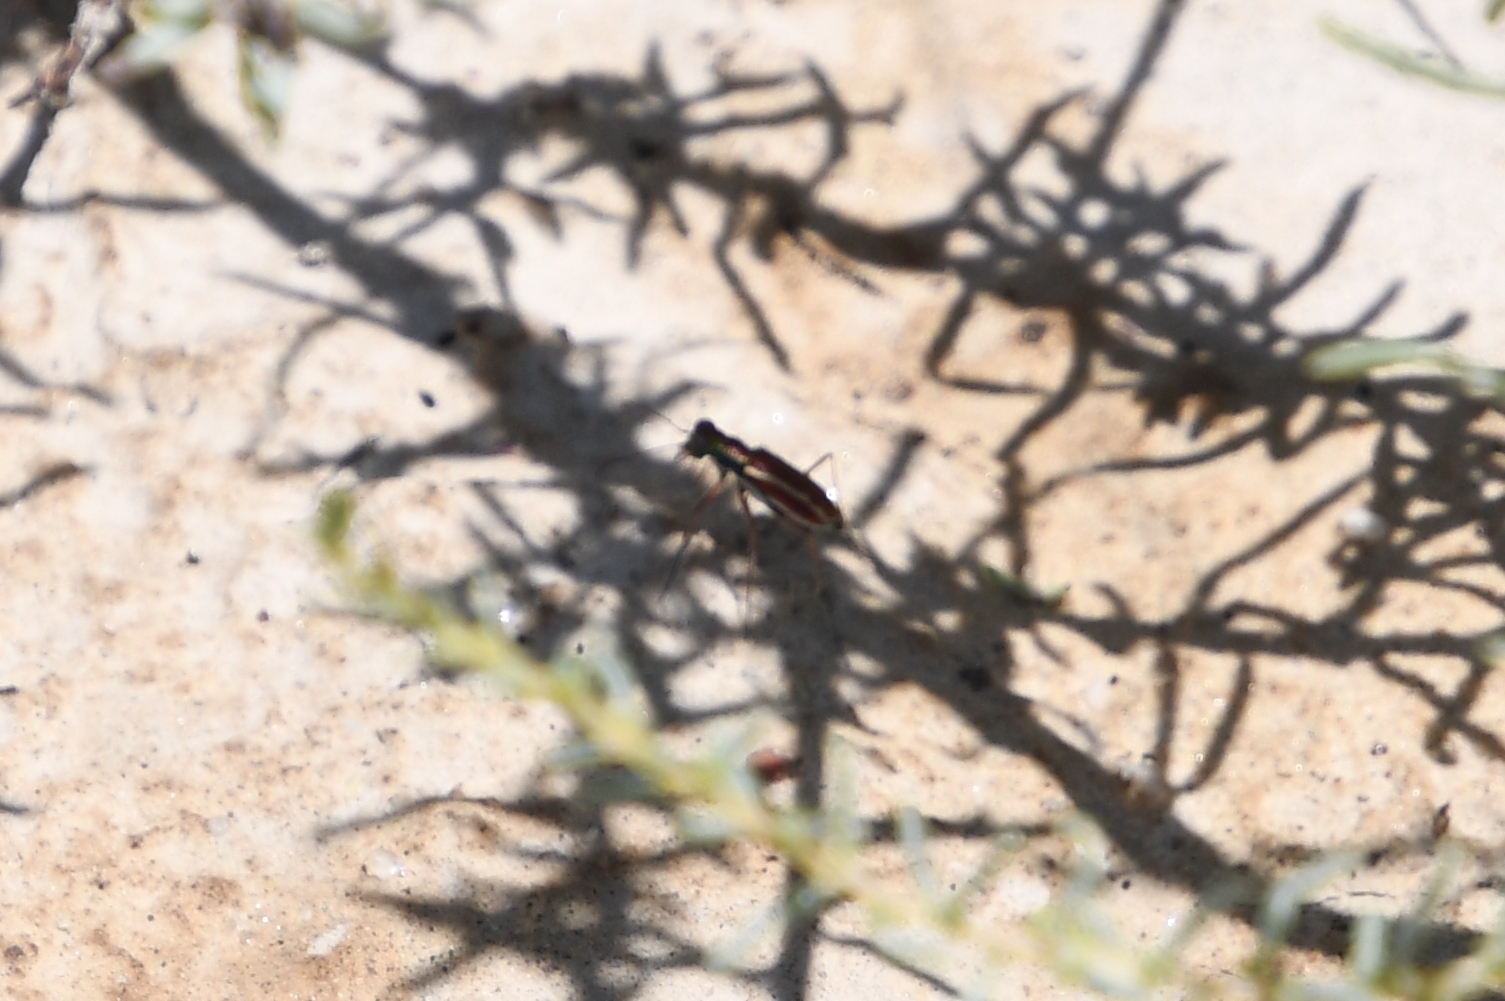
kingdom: Animalia
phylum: Arthropoda
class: Insecta
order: Coleoptera
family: Carabidae
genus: Cylindera
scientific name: Cylindera lemniscata
